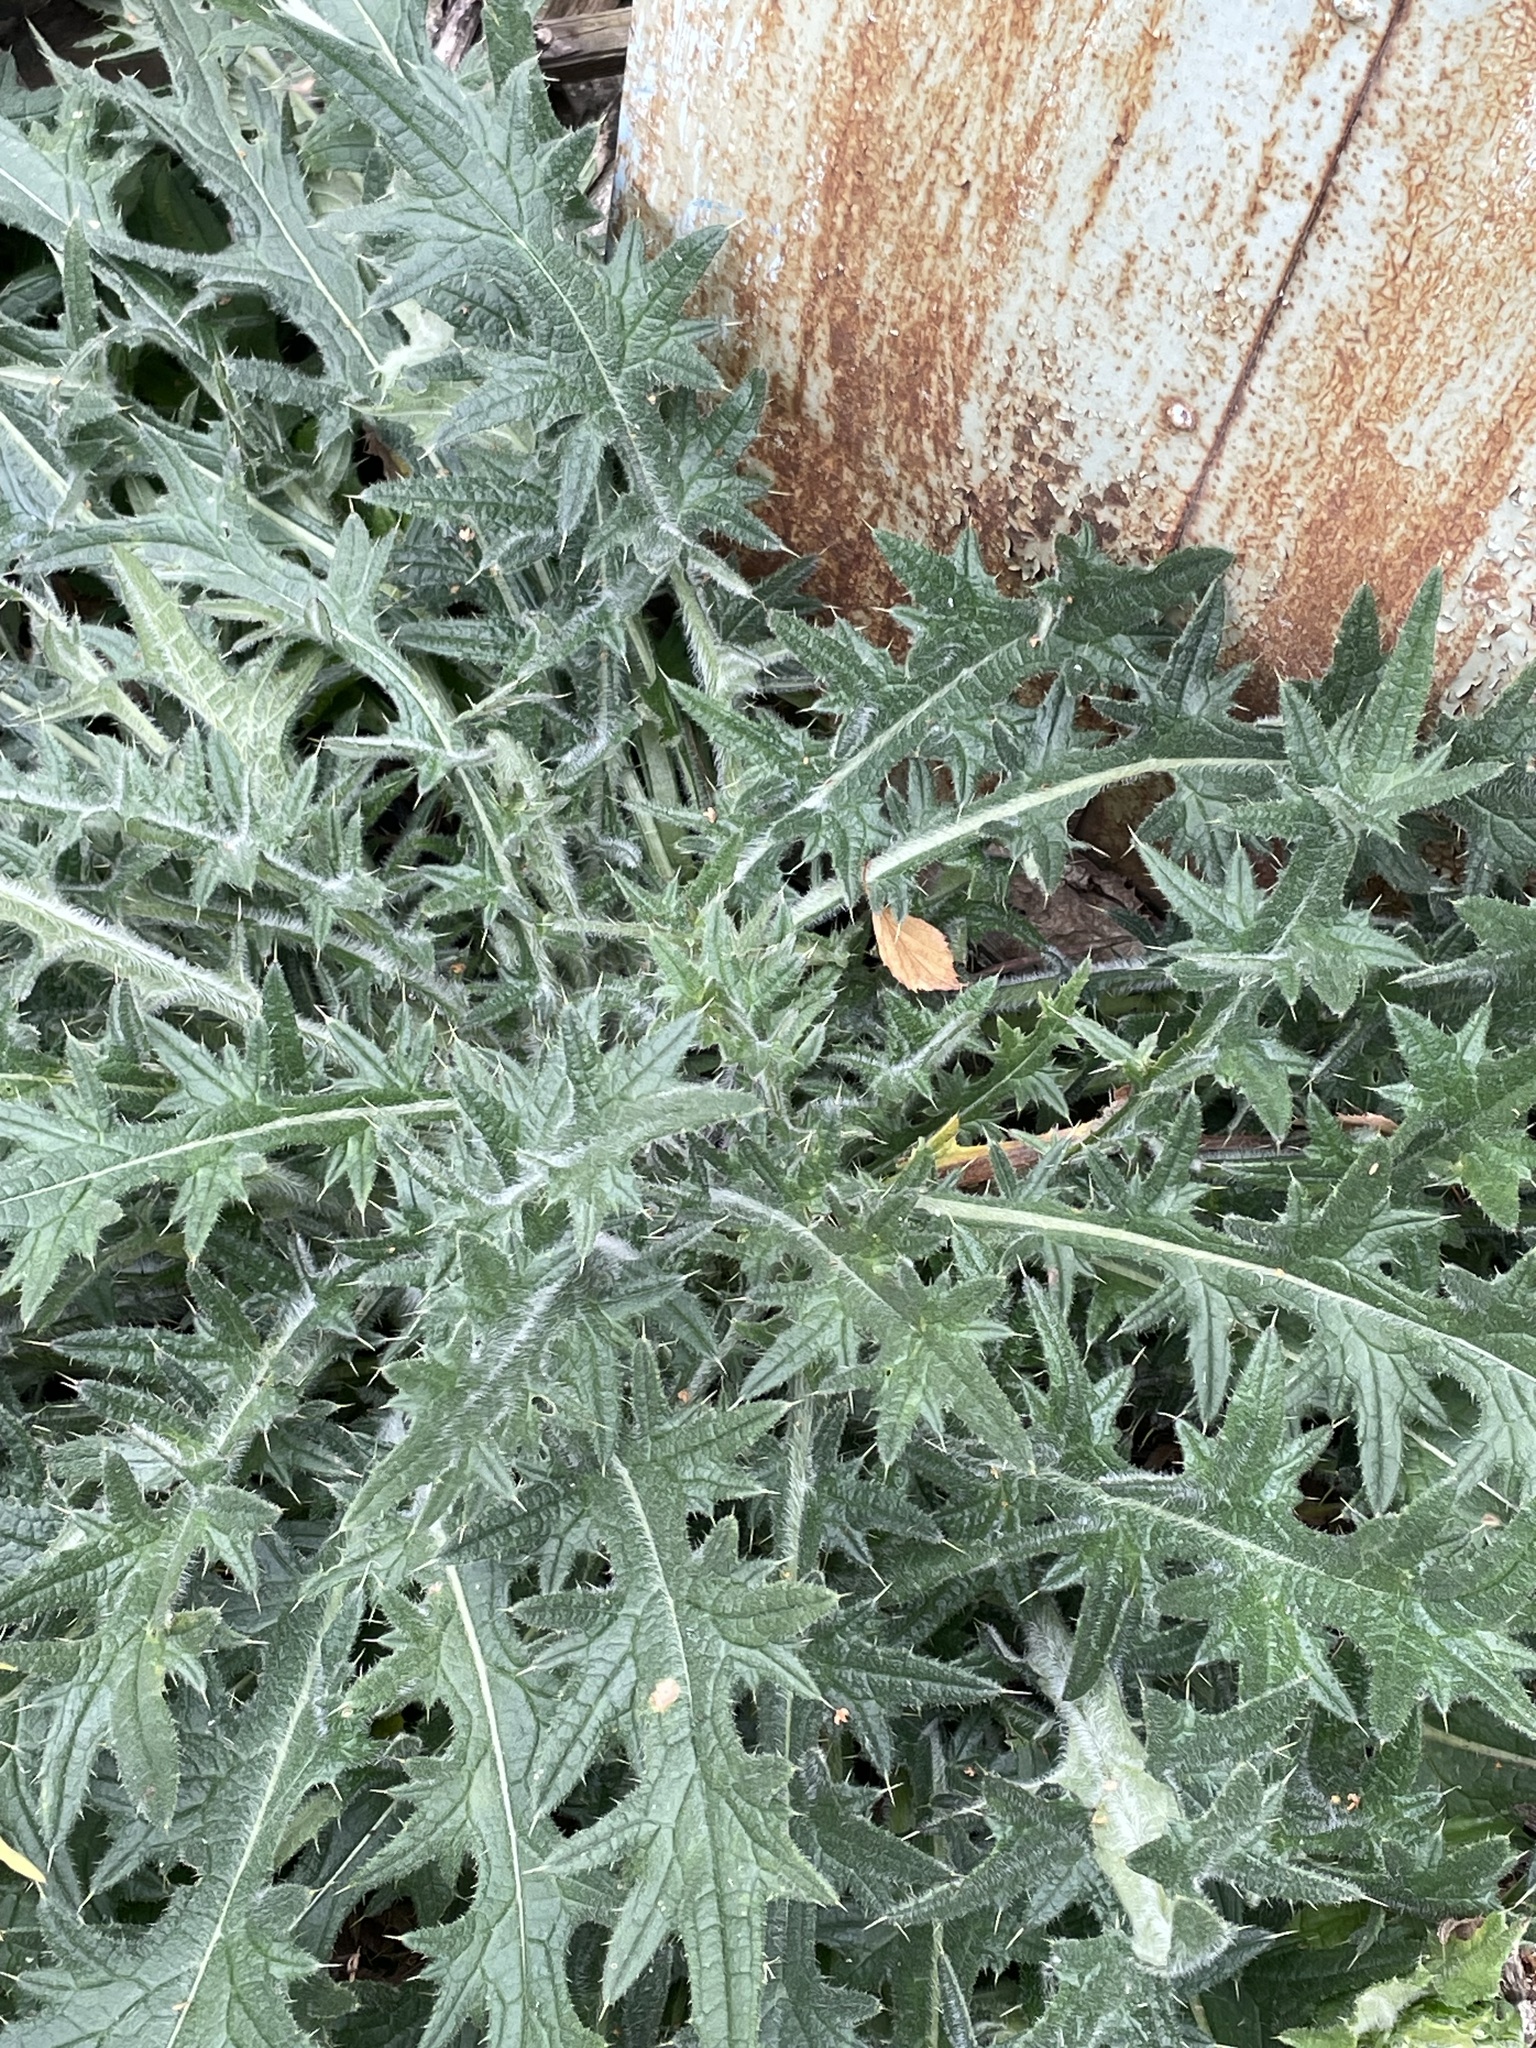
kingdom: Plantae
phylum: Tracheophyta
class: Magnoliopsida
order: Asterales
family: Asteraceae
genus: Cirsium
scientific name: Cirsium vulgare
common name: Bull thistle
